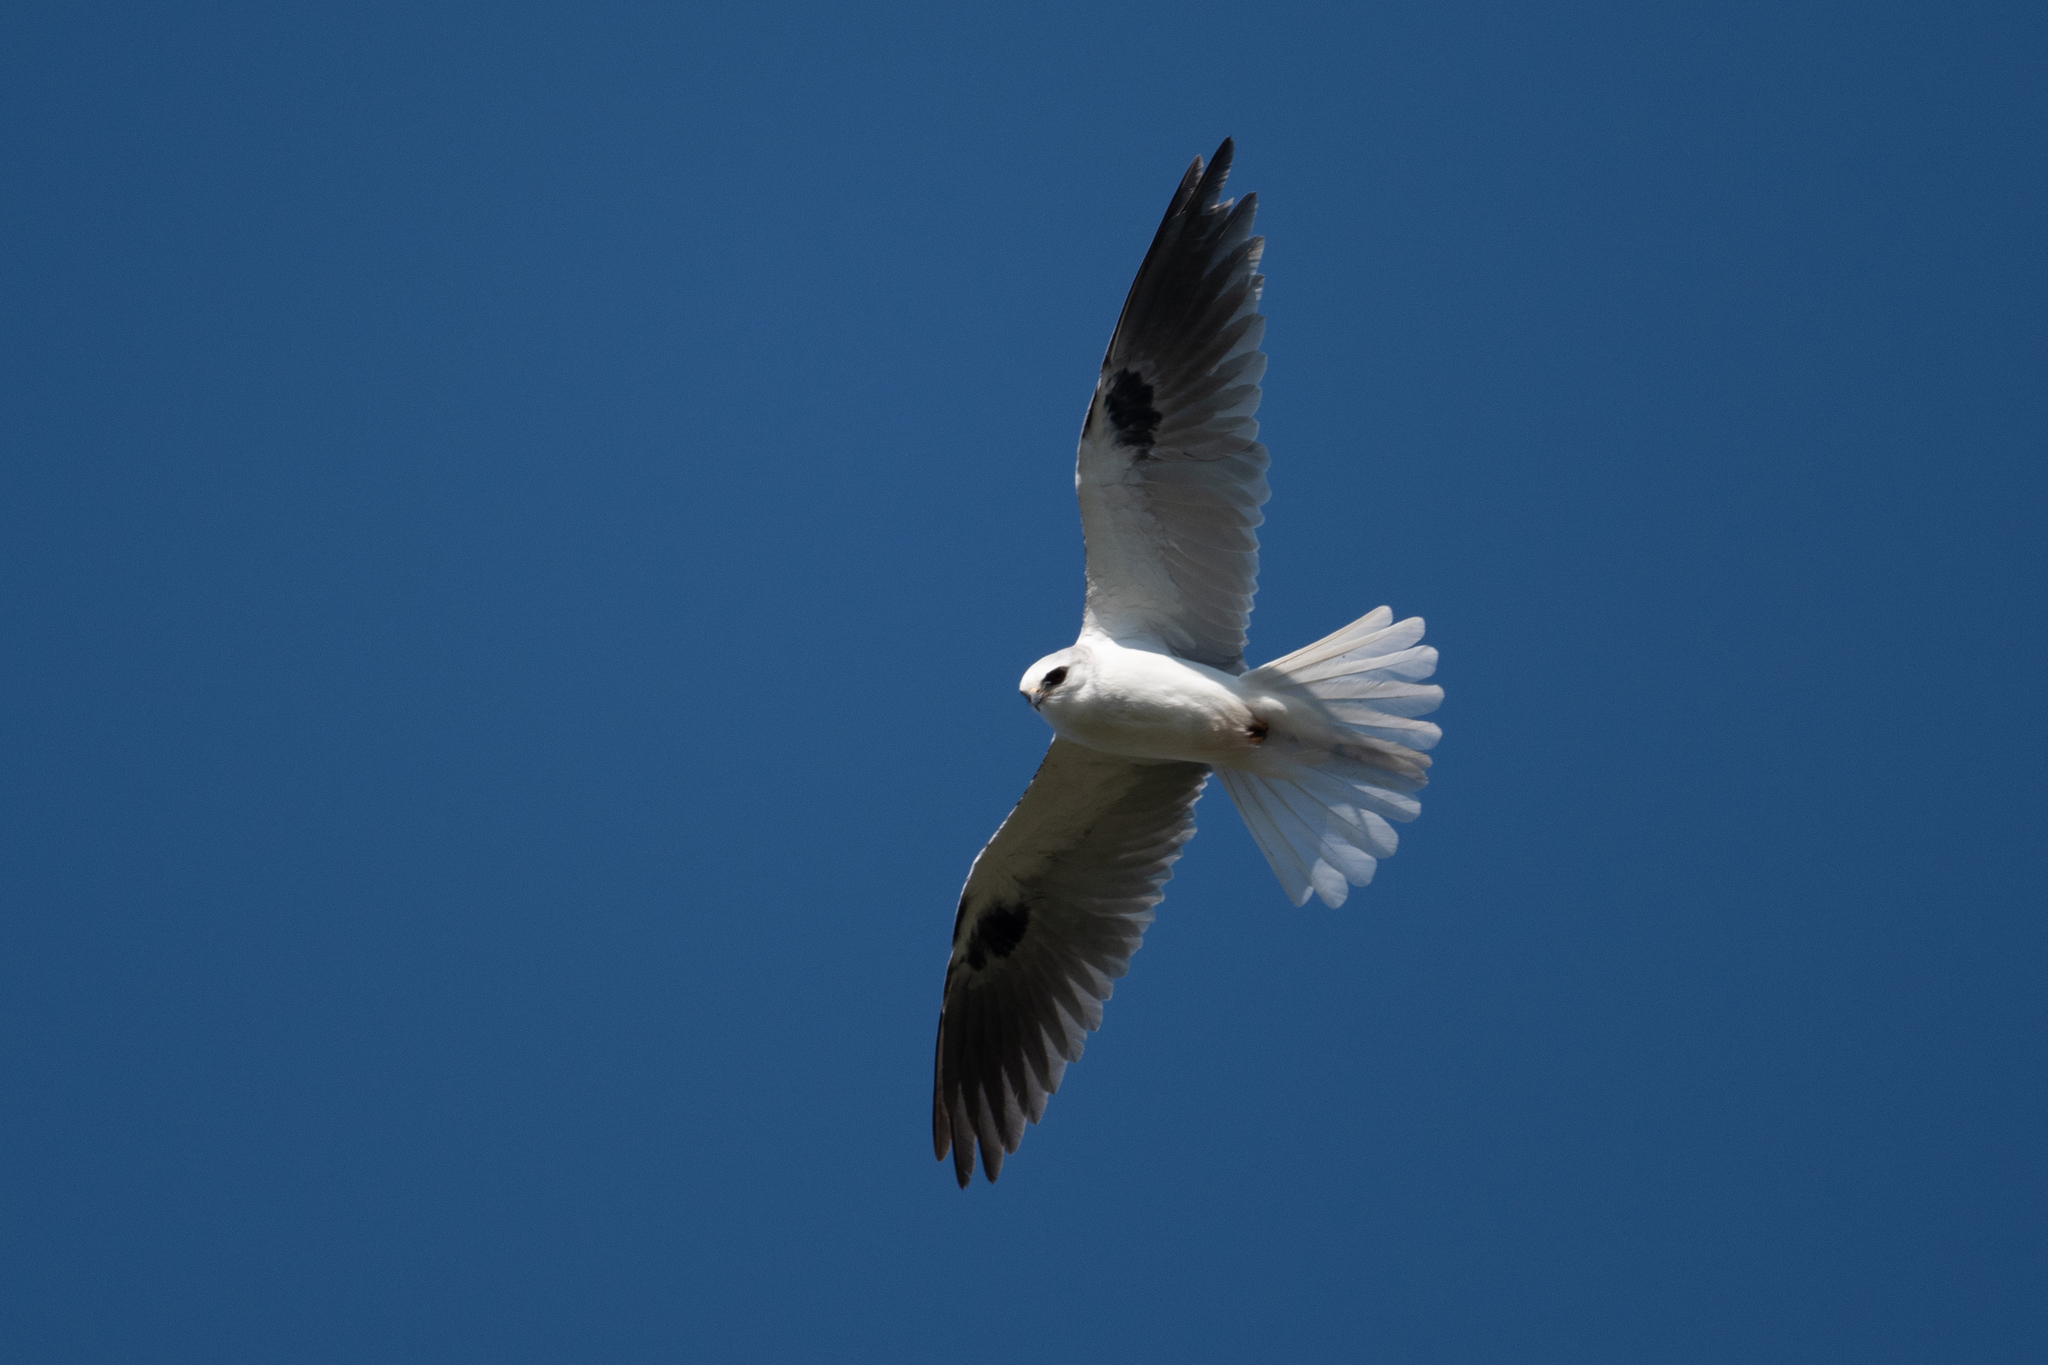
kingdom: Animalia
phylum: Chordata
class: Aves
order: Accipitriformes
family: Accipitridae
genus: Elanus
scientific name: Elanus leucurus
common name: White-tailed kite
